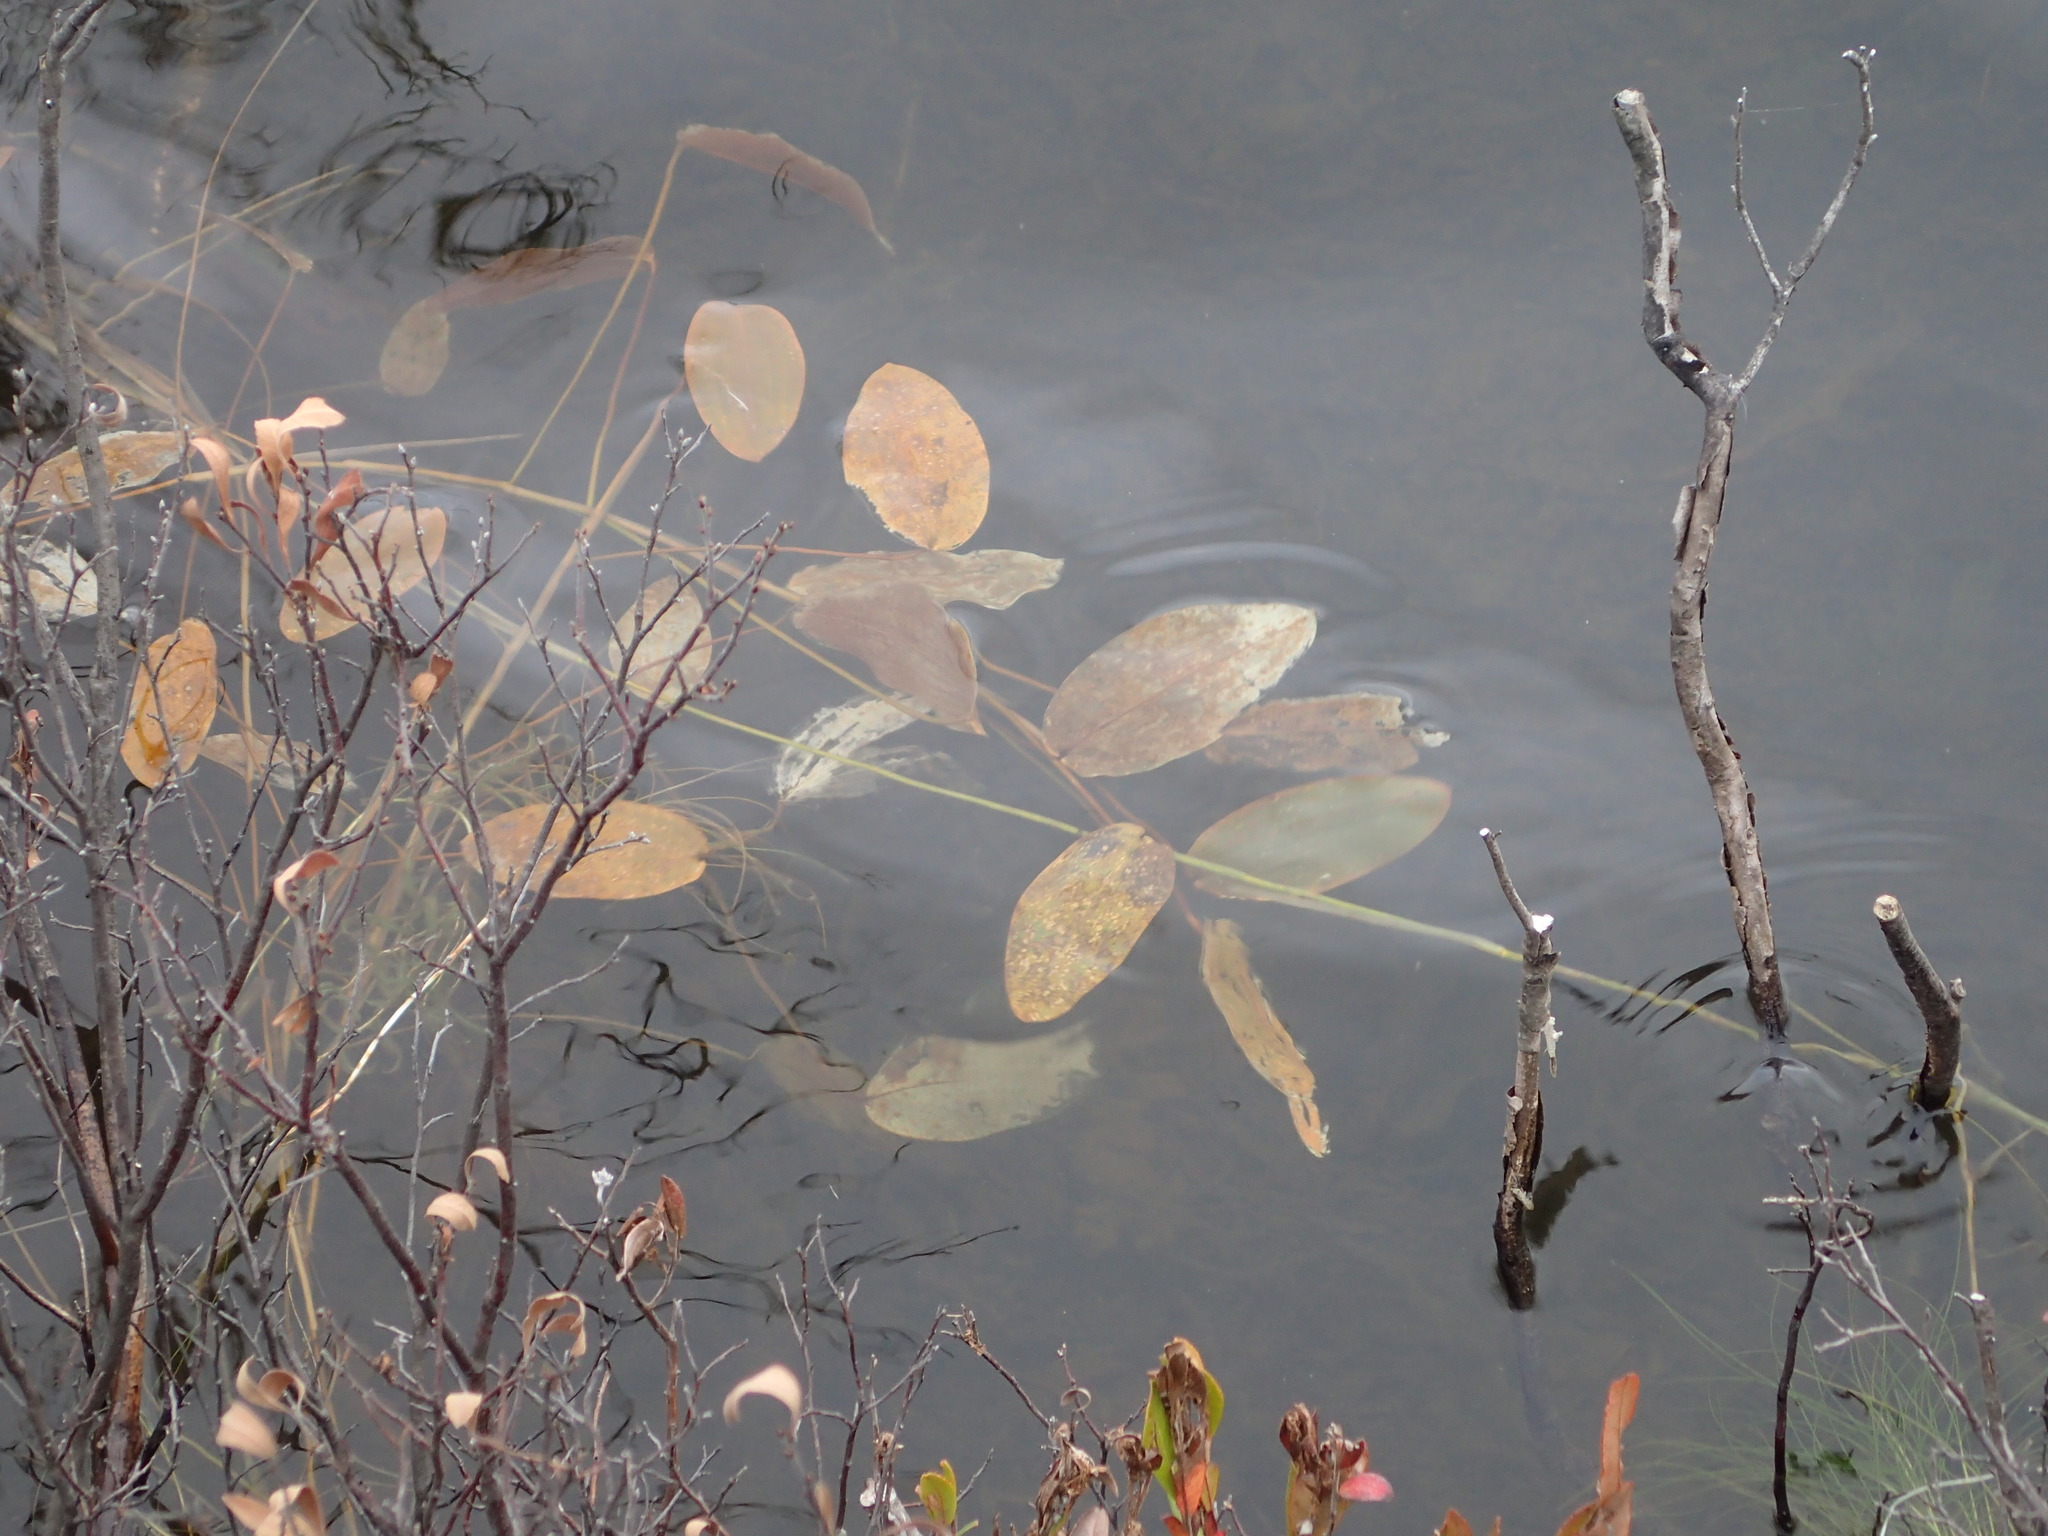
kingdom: Plantae
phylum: Tracheophyta
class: Liliopsida
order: Alismatales
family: Potamogetonaceae
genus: Potamogeton
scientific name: Potamogeton natans
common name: Broad-leaved pondweed
